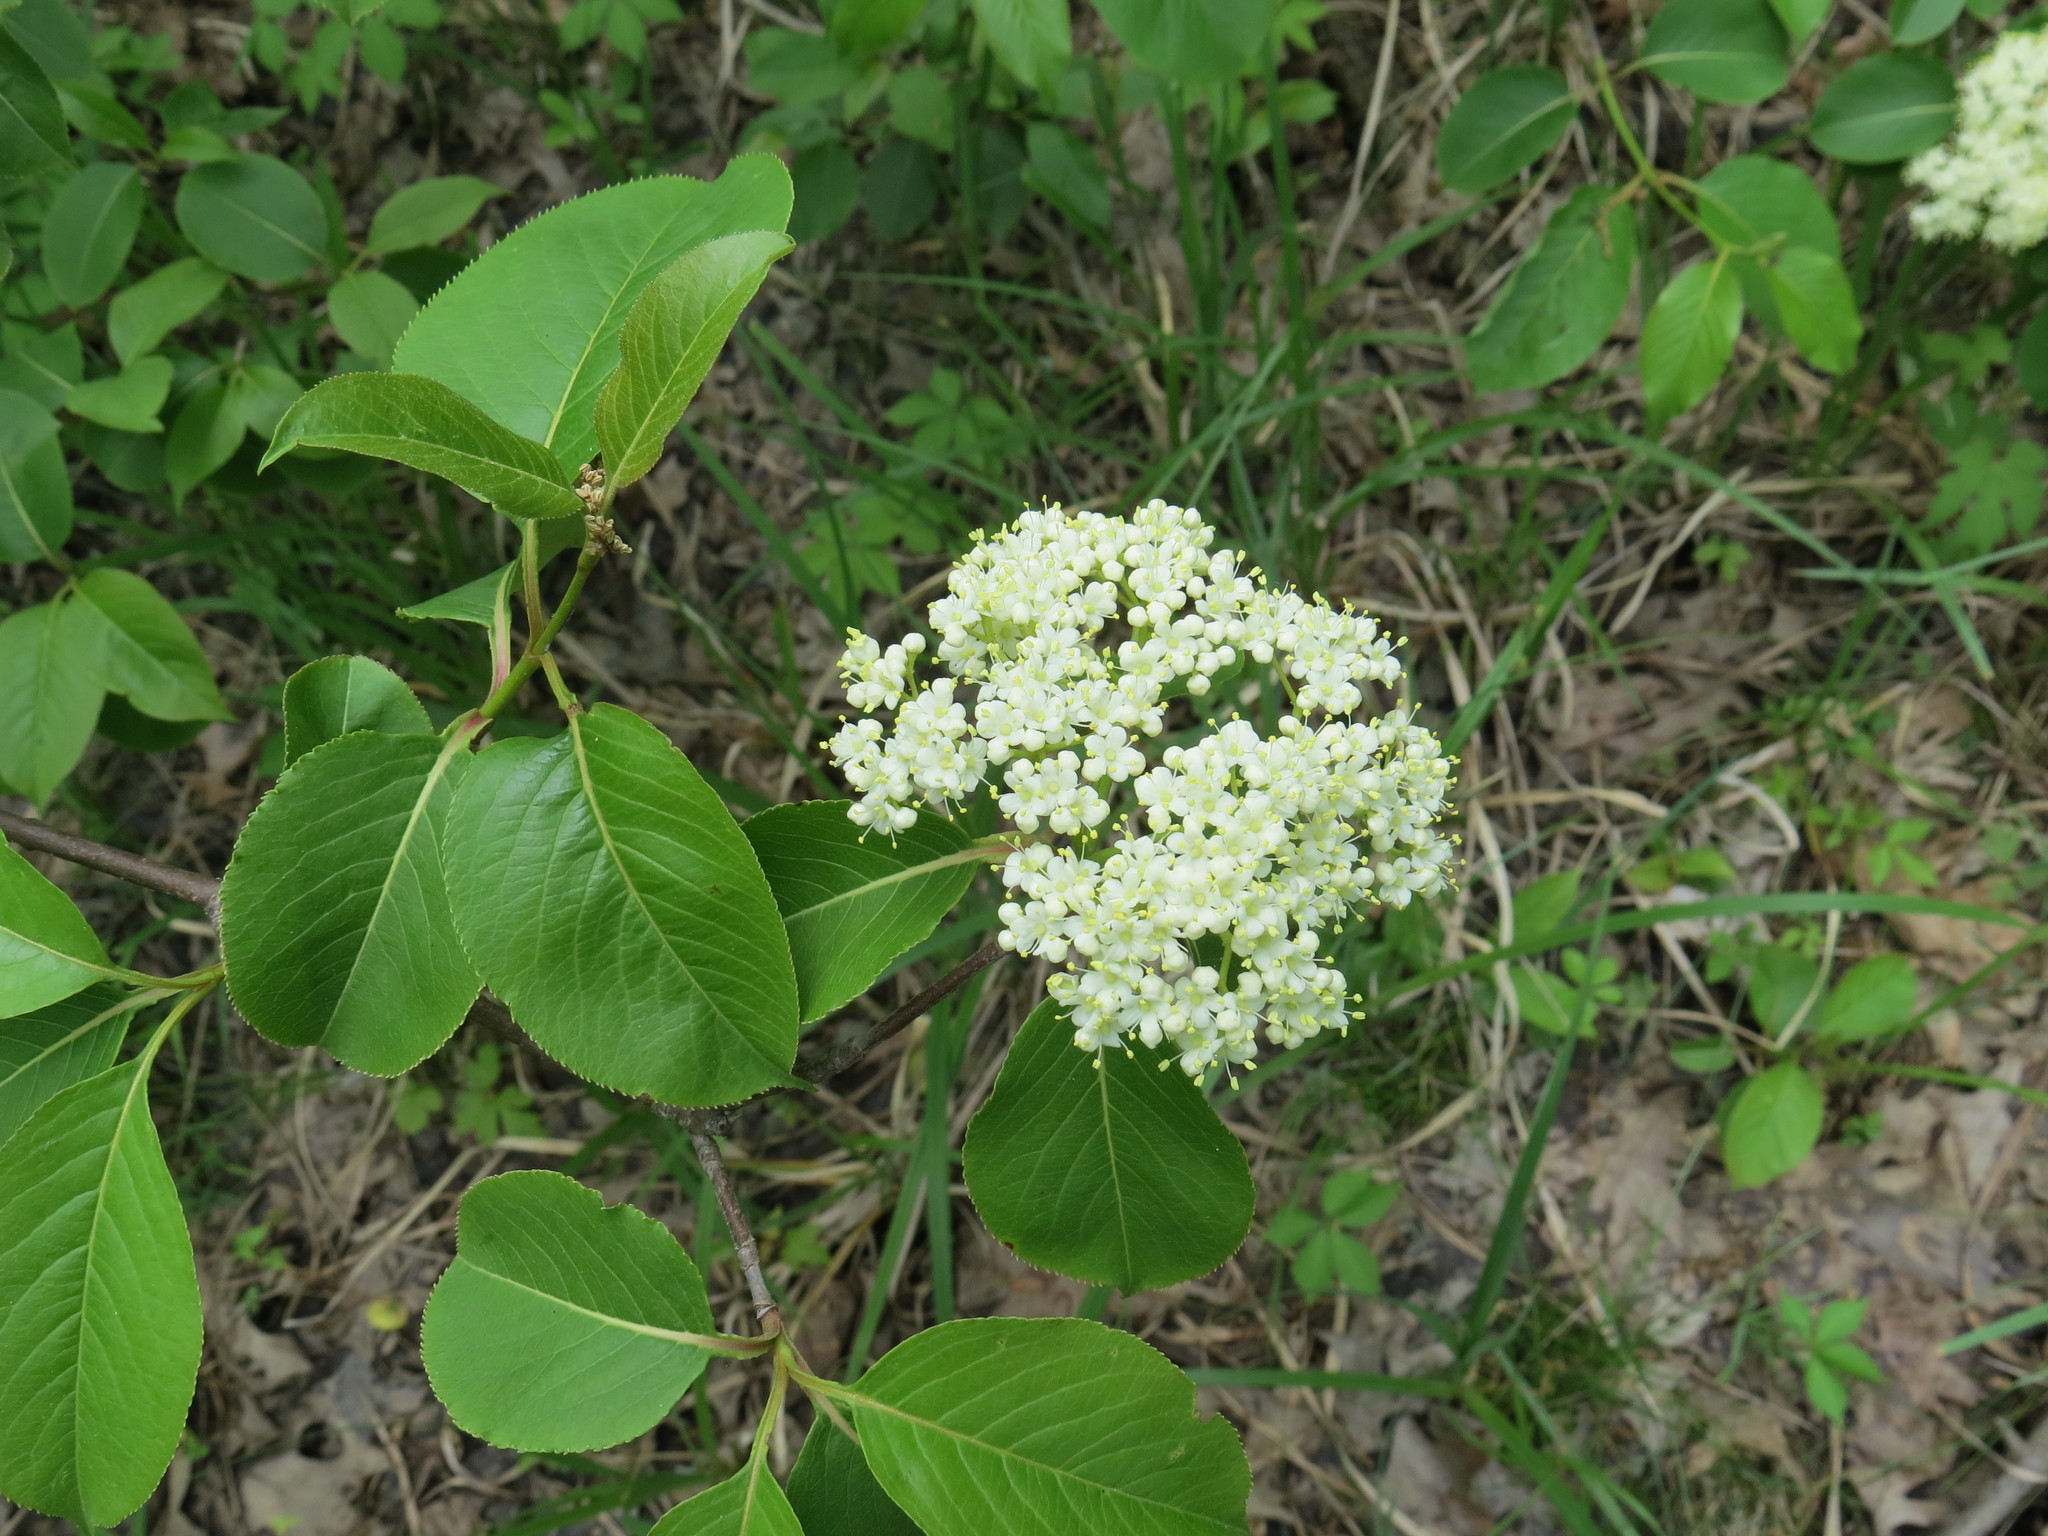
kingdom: Plantae
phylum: Tracheophyta
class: Magnoliopsida
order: Dipsacales
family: Viburnaceae
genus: Viburnum
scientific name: Viburnum lentago
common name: Black haw
